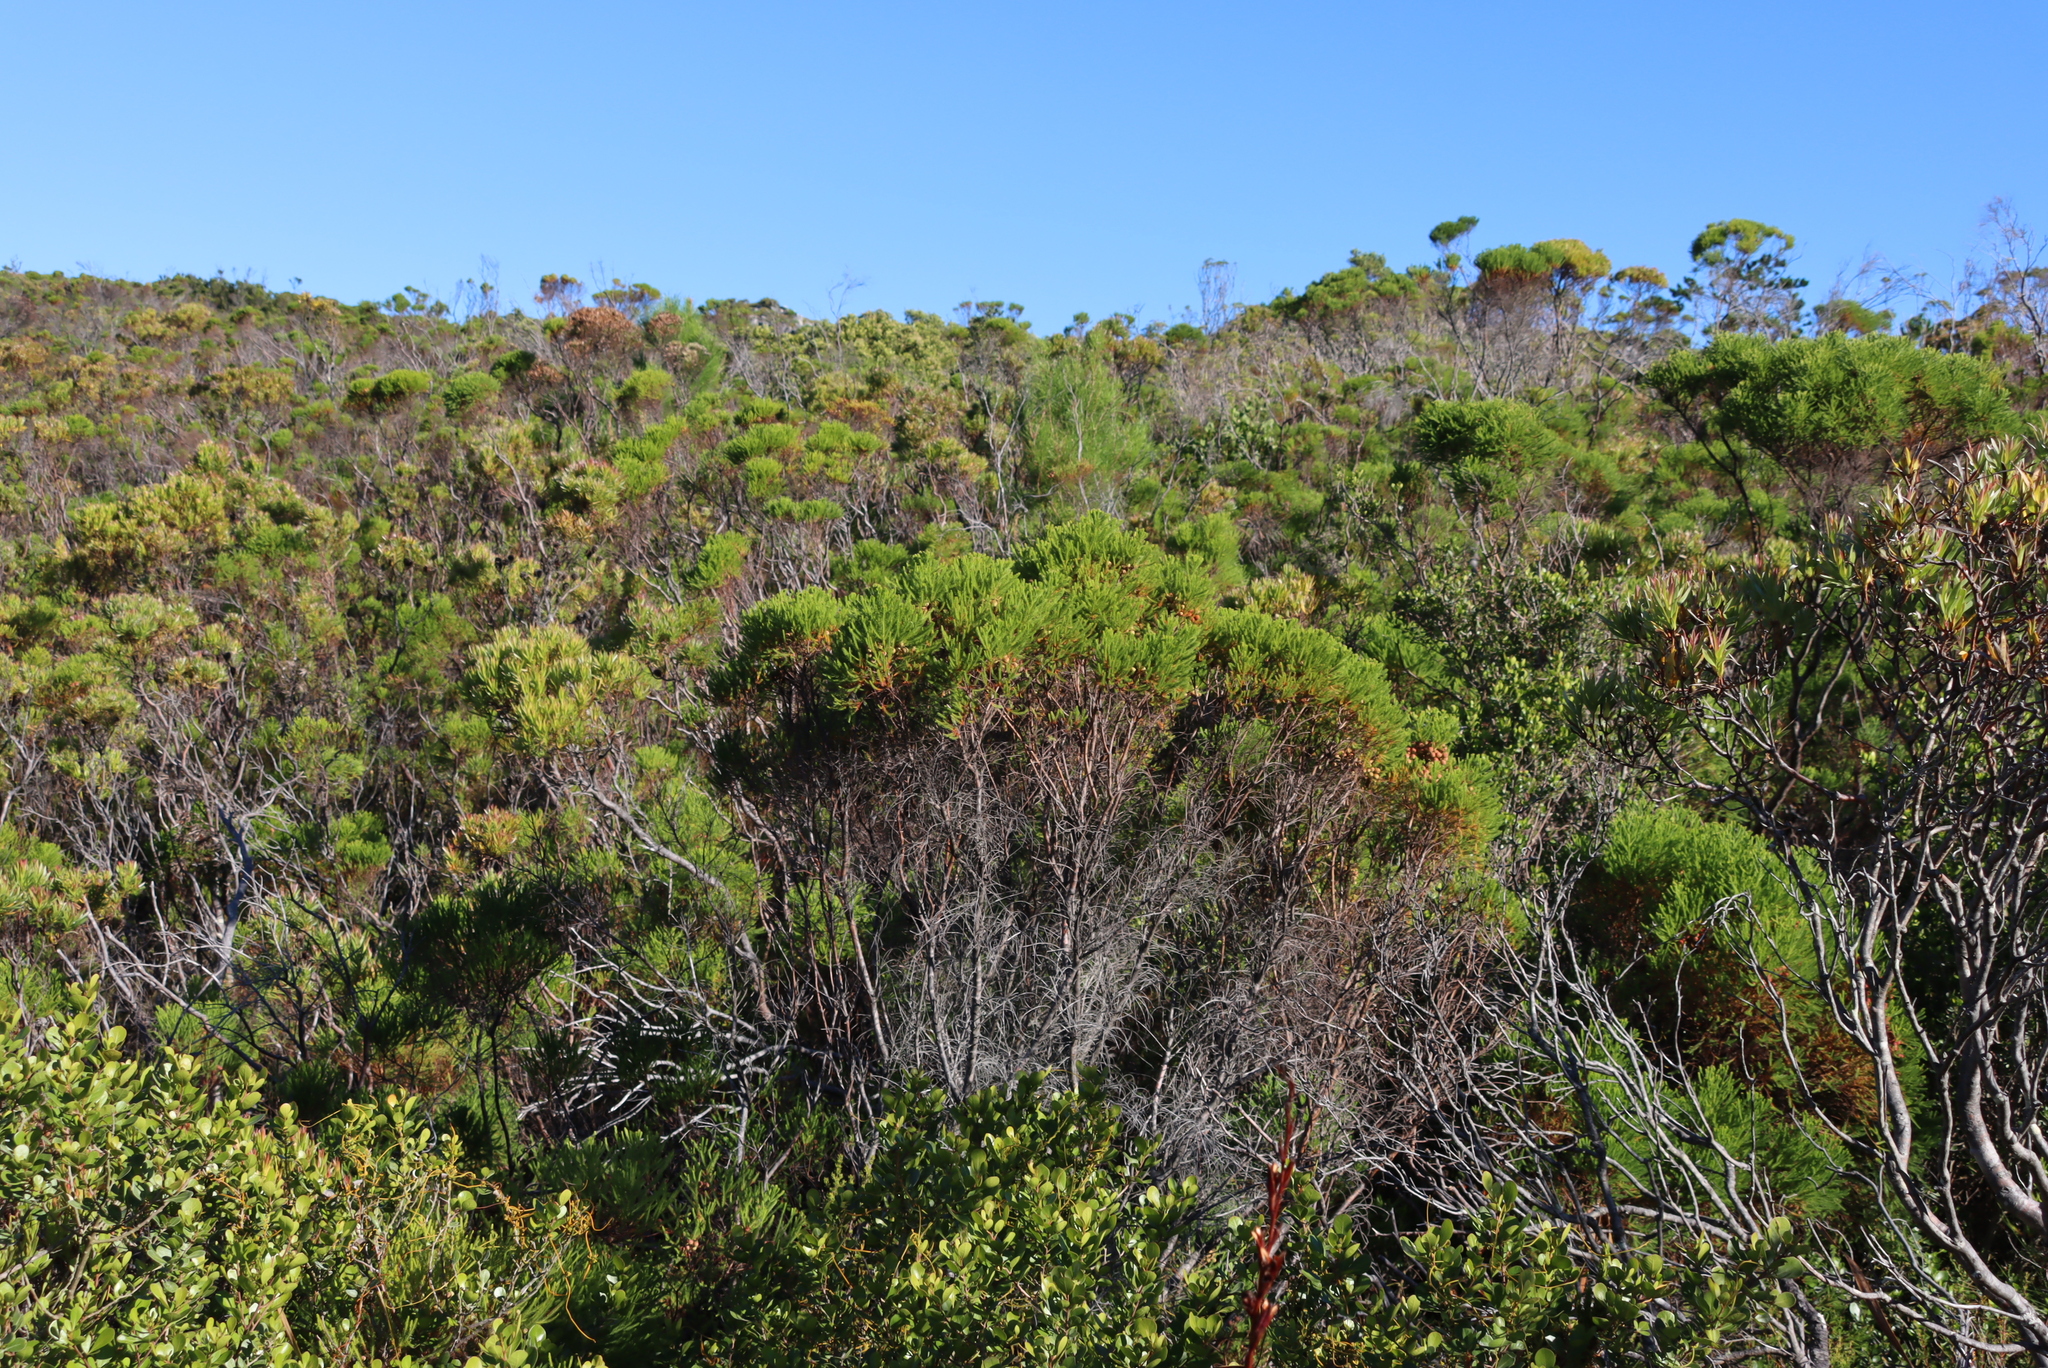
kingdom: Plantae
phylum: Tracheophyta
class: Magnoliopsida
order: Bruniales
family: Bruniaceae
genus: Berzelia
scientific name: Berzelia lanuginosa
